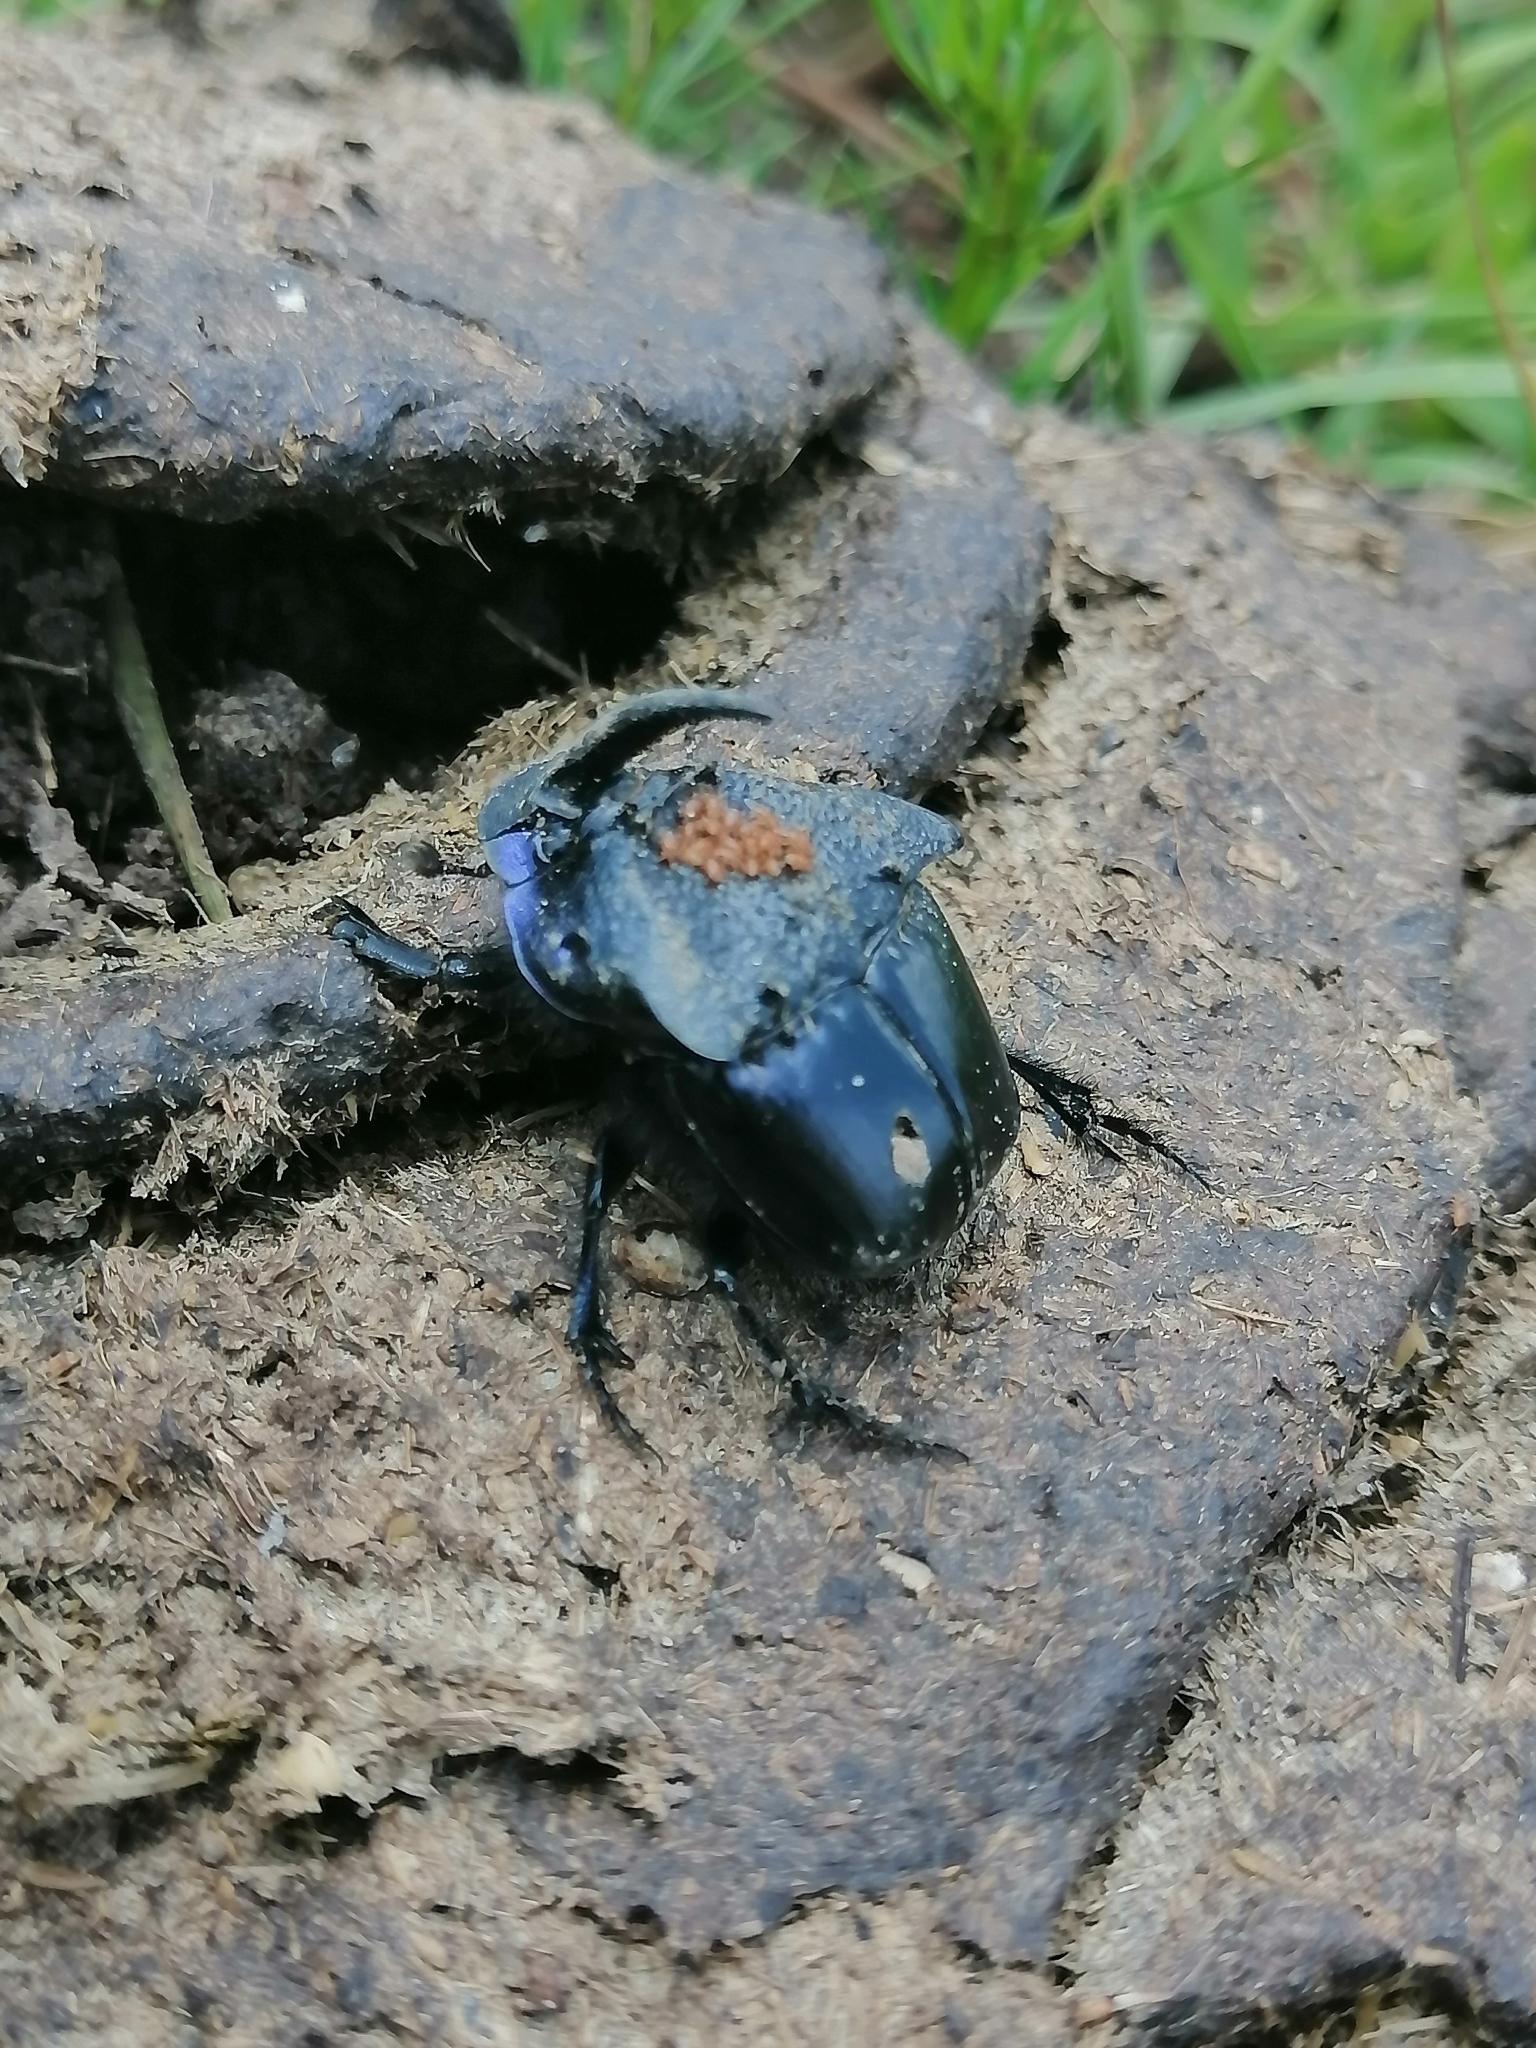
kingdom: Animalia
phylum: Arthropoda
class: Insecta
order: Coleoptera
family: Scarabaeidae
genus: Phanaeus
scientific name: Phanaeus quadridens
